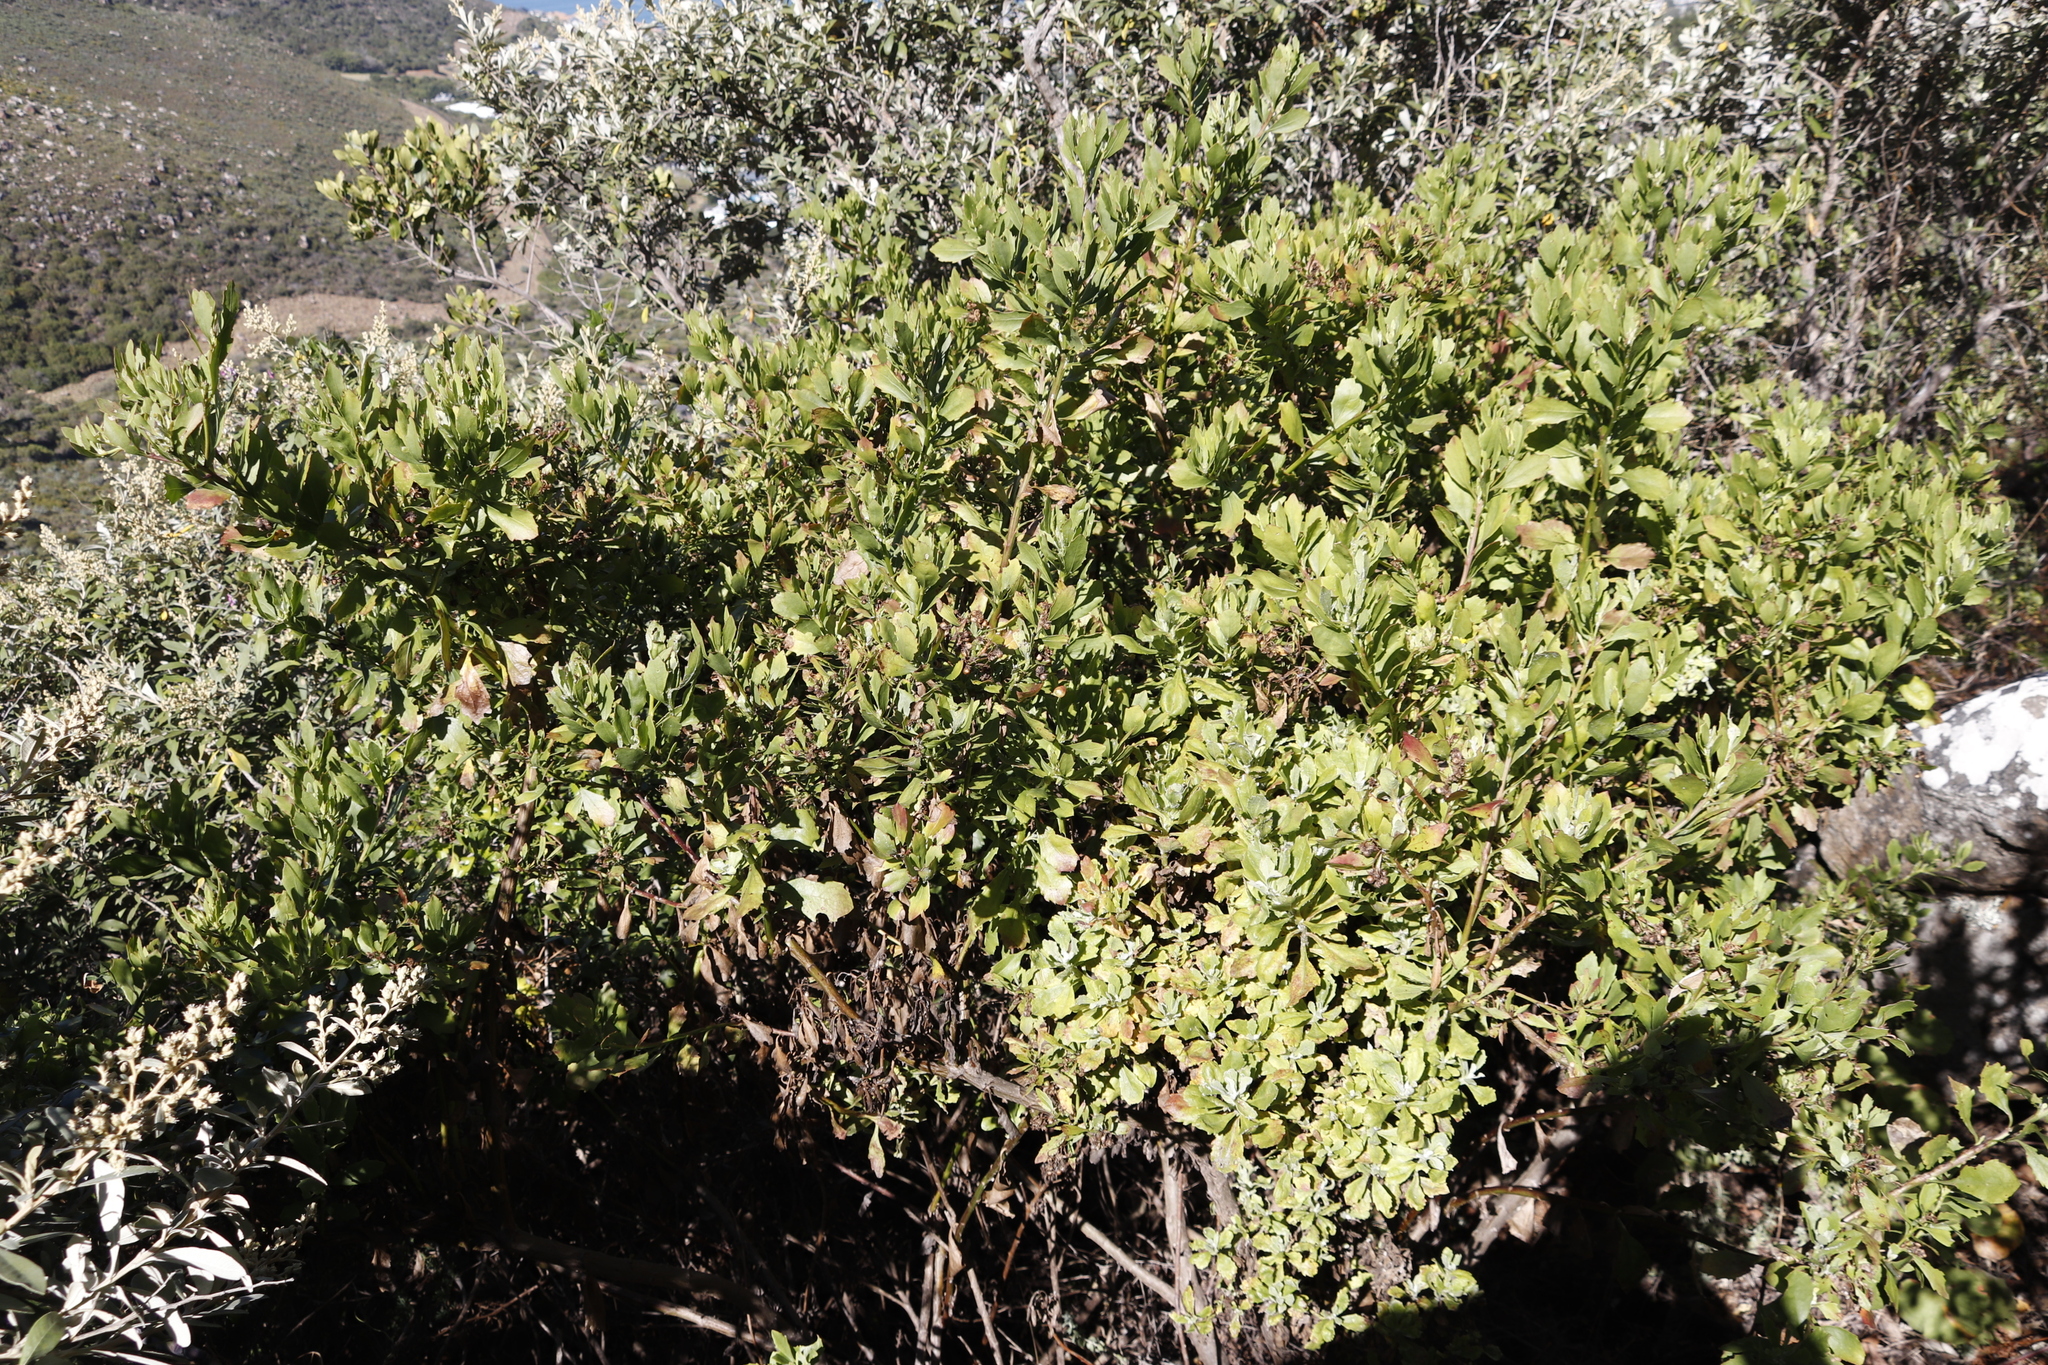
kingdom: Plantae
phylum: Tracheophyta
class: Magnoliopsida
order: Asterales
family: Asteraceae
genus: Osteospermum
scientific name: Osteospermum moniliferum
